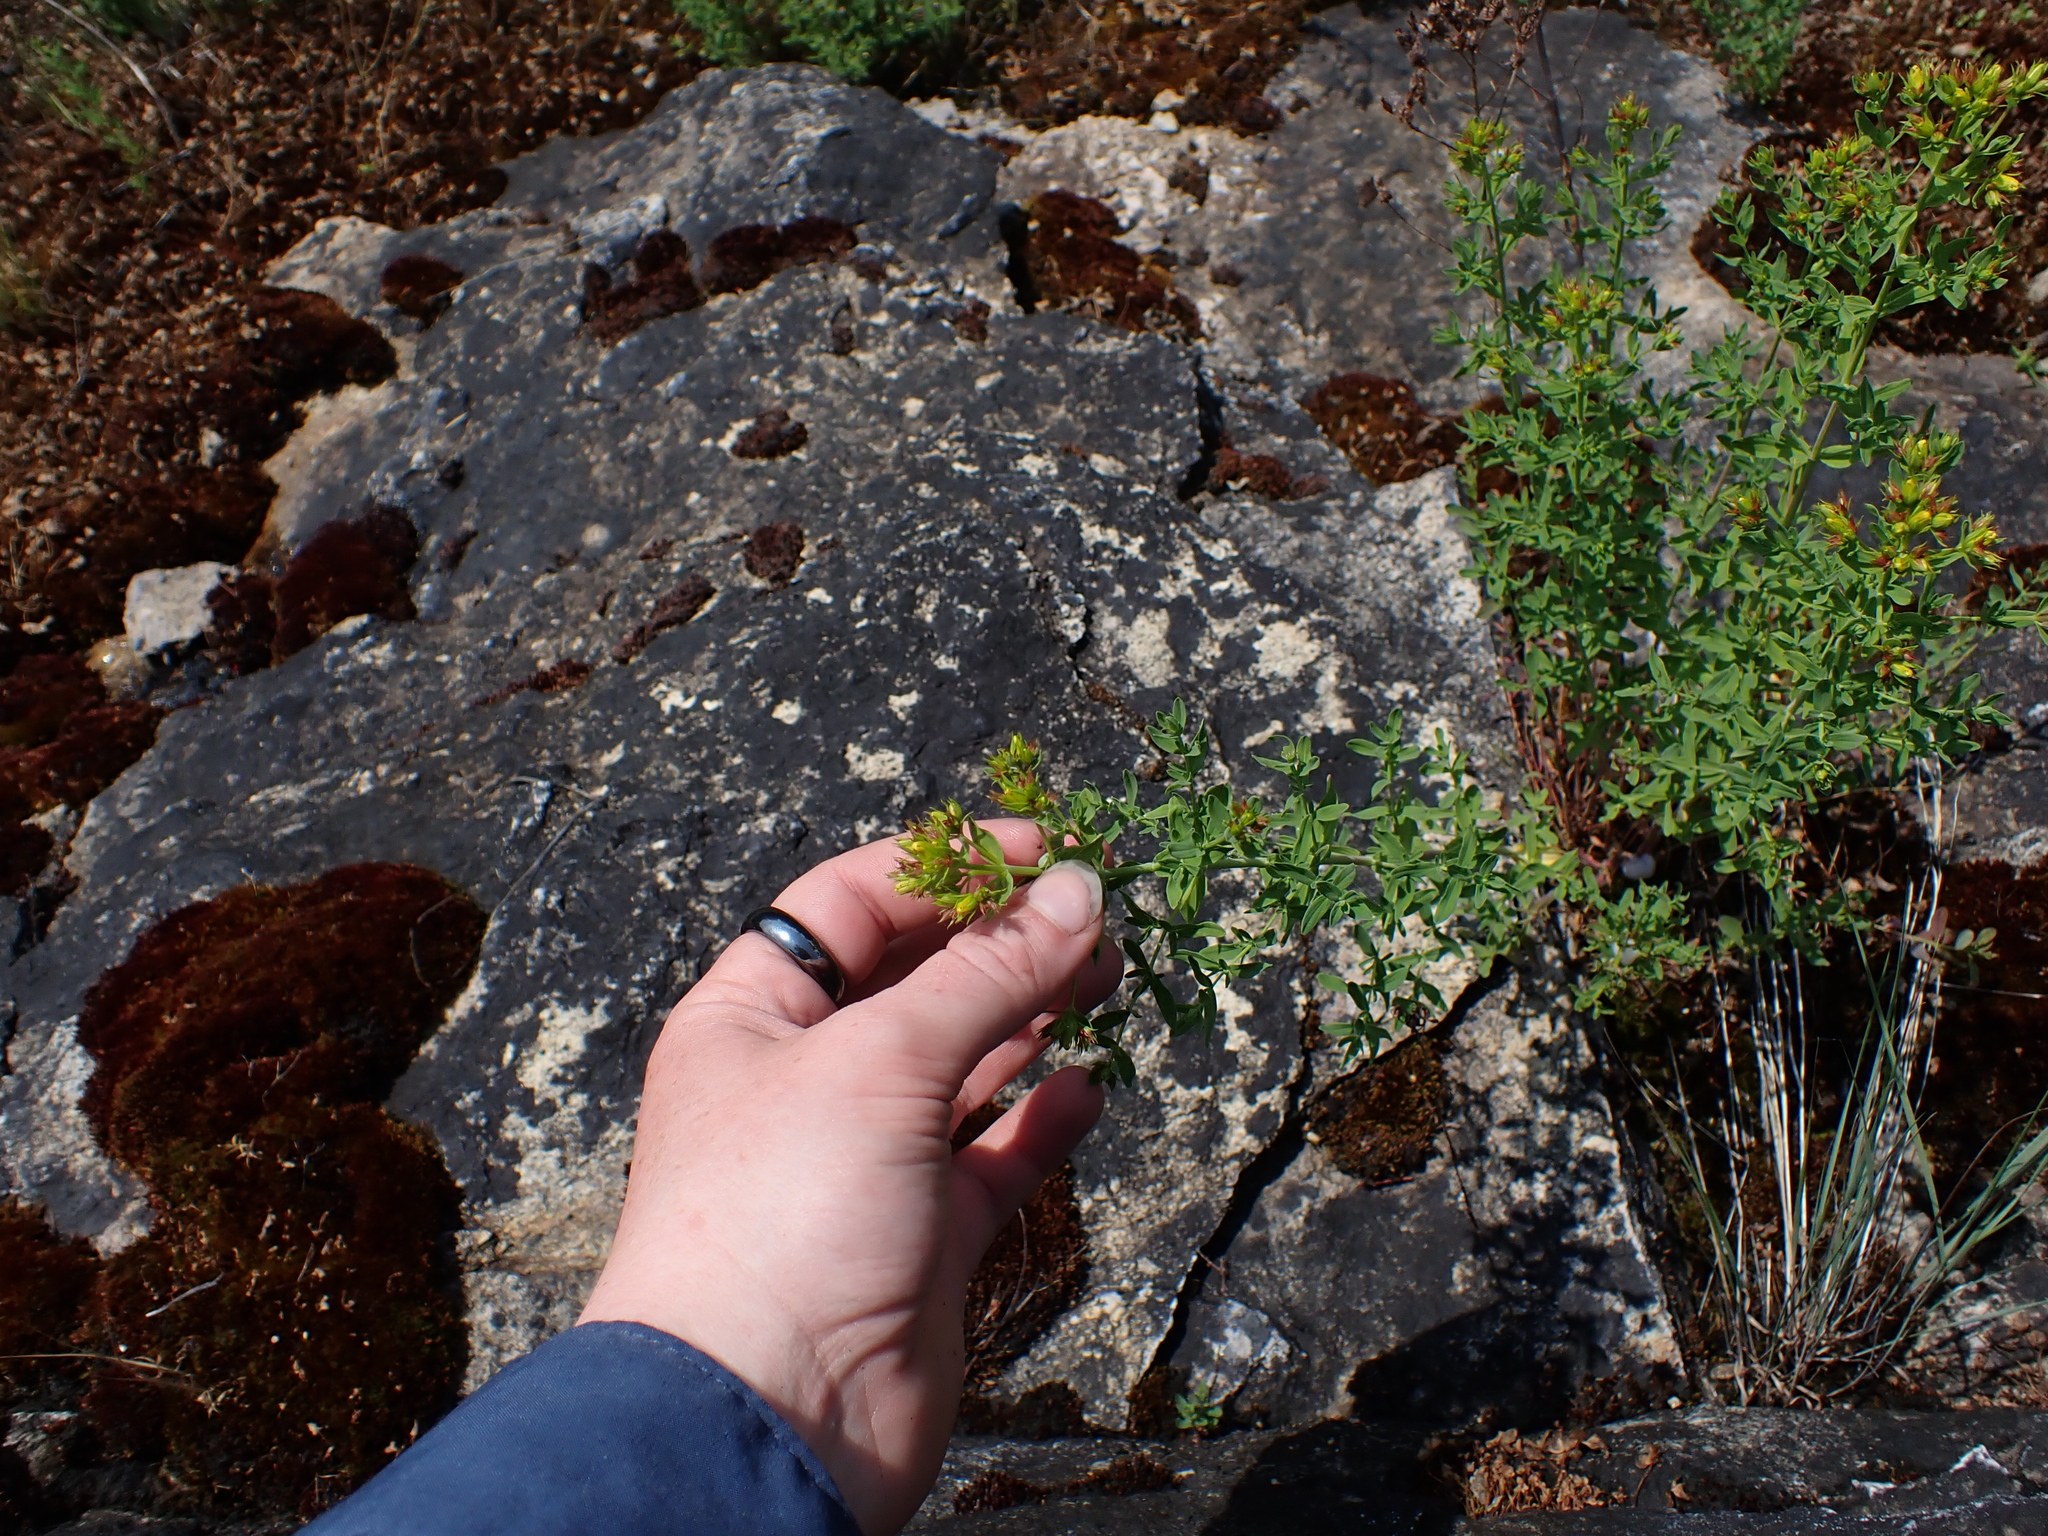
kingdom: Plantae
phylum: Tracheophyta
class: Magnoliopsida
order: Malpighiales
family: Hypericaceae
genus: Hypericum
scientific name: Hypericum perforatum
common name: Common st. johnswort
